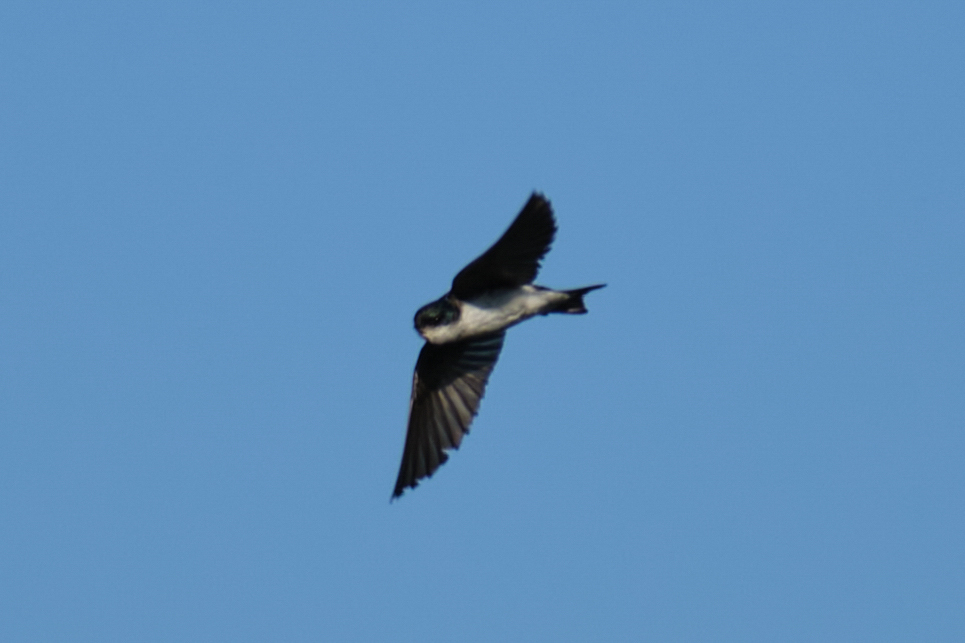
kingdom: Animalia
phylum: Chordata
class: Aves
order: Passeriformes
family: Hirundinidae
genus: Tachycineta
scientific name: Tachycineta bicolor
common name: Tree swallow
